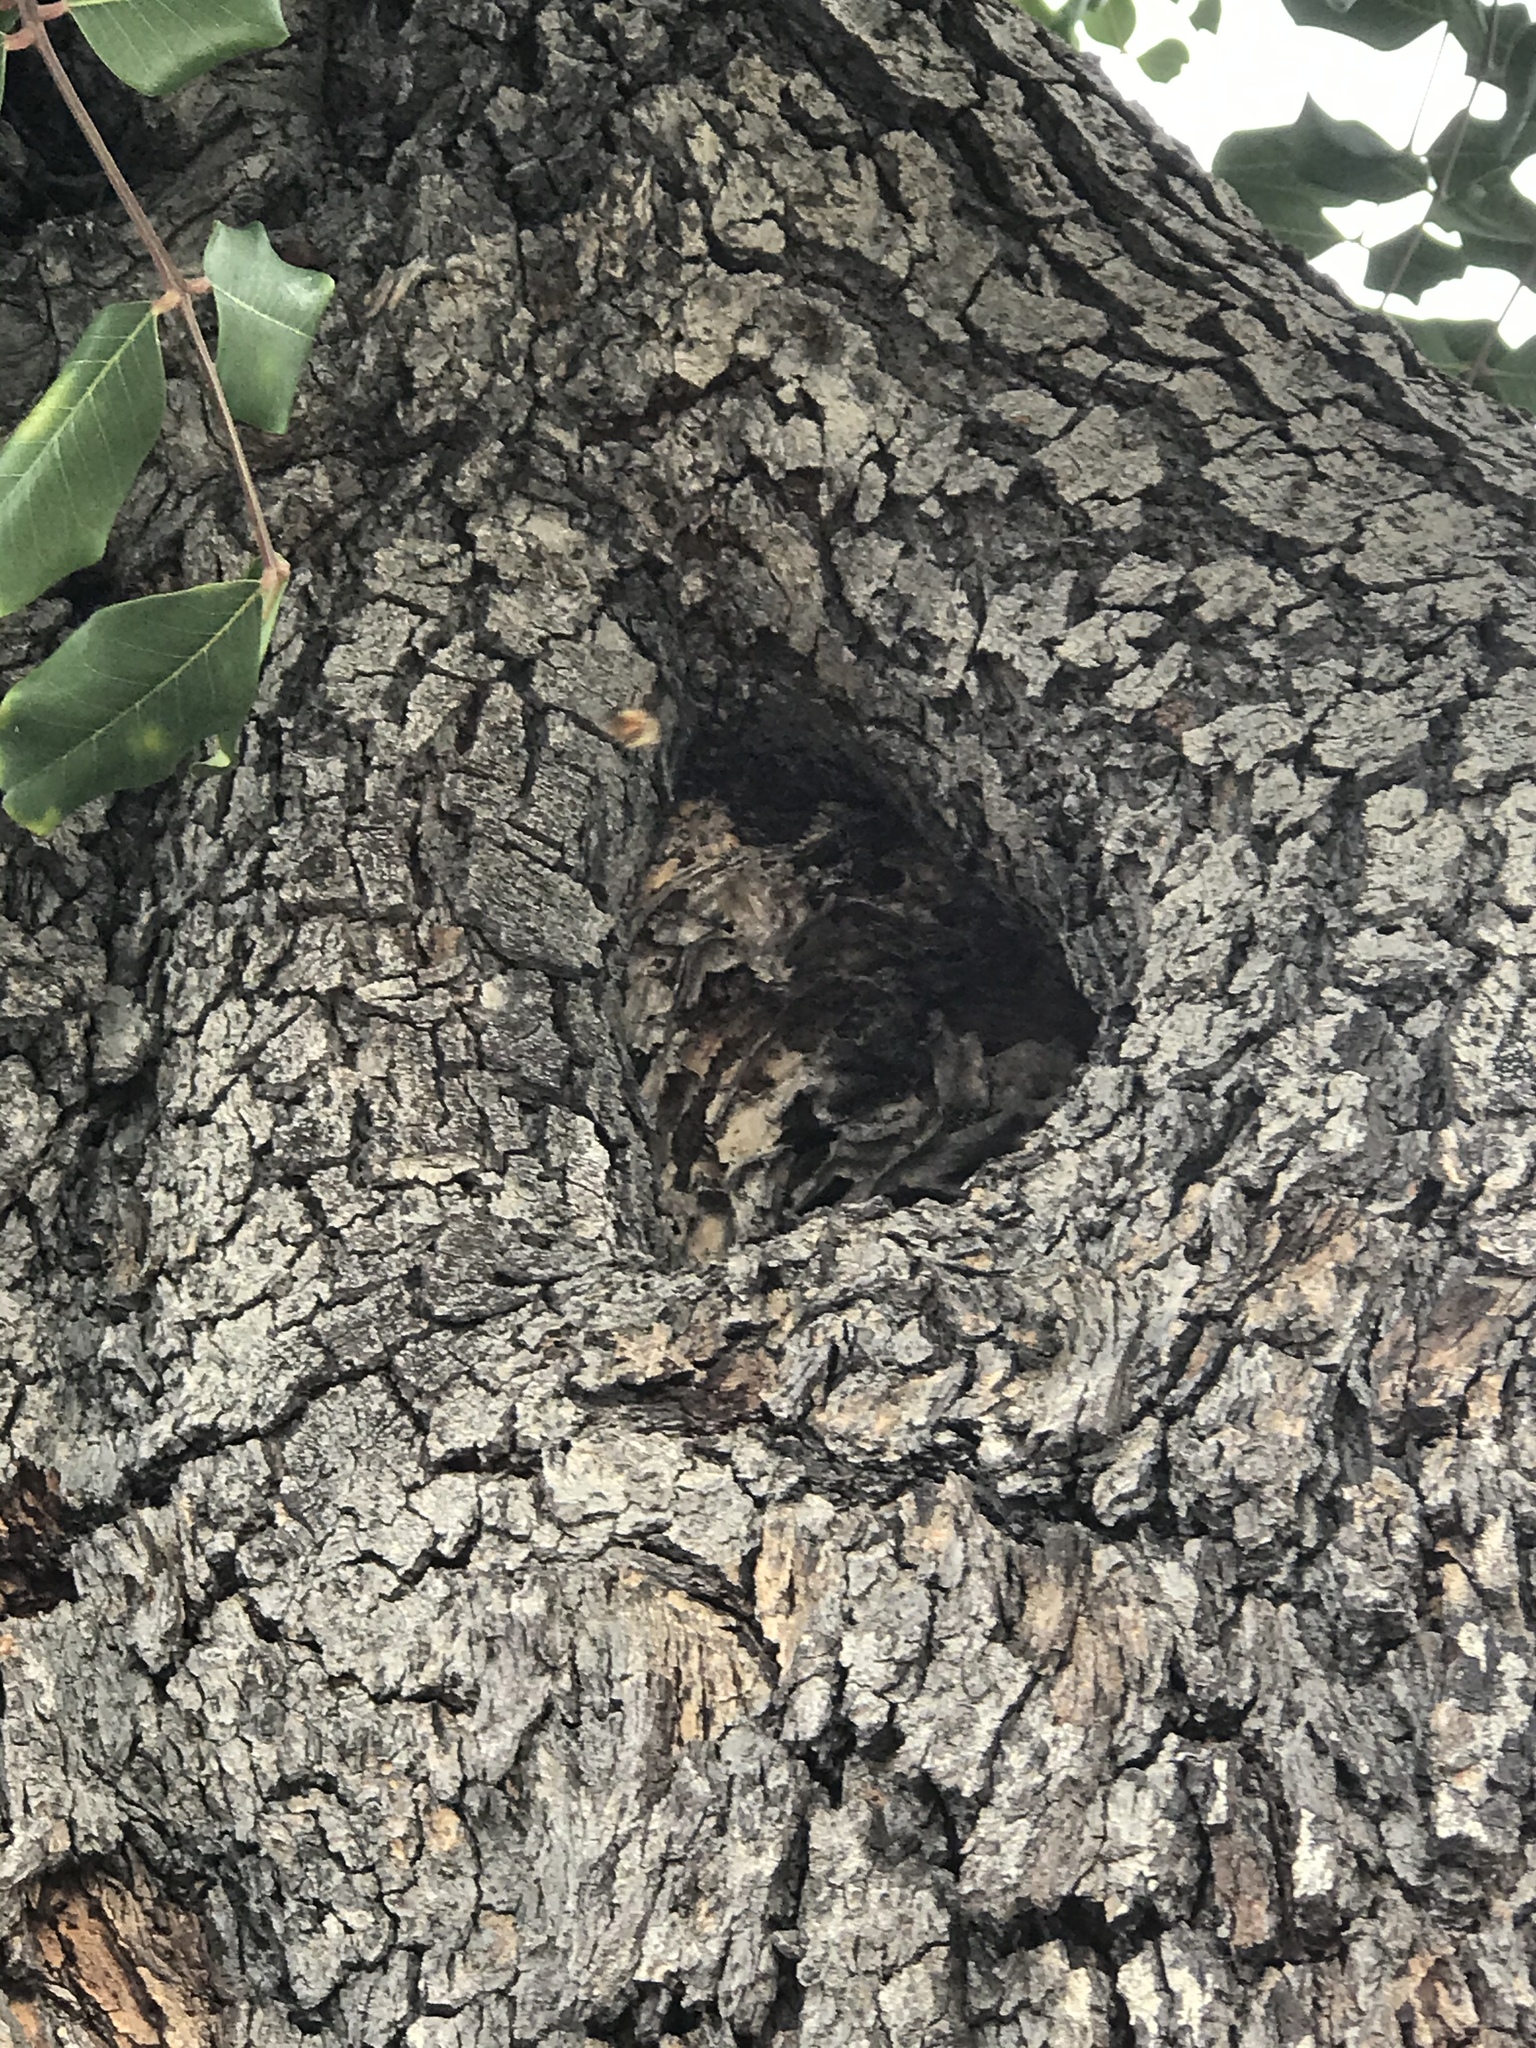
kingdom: Animalia
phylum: Arthropoda
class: Insecta
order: Hymenoptera
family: Apidae
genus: Apis
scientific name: Apis mellifera
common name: Honey bee
